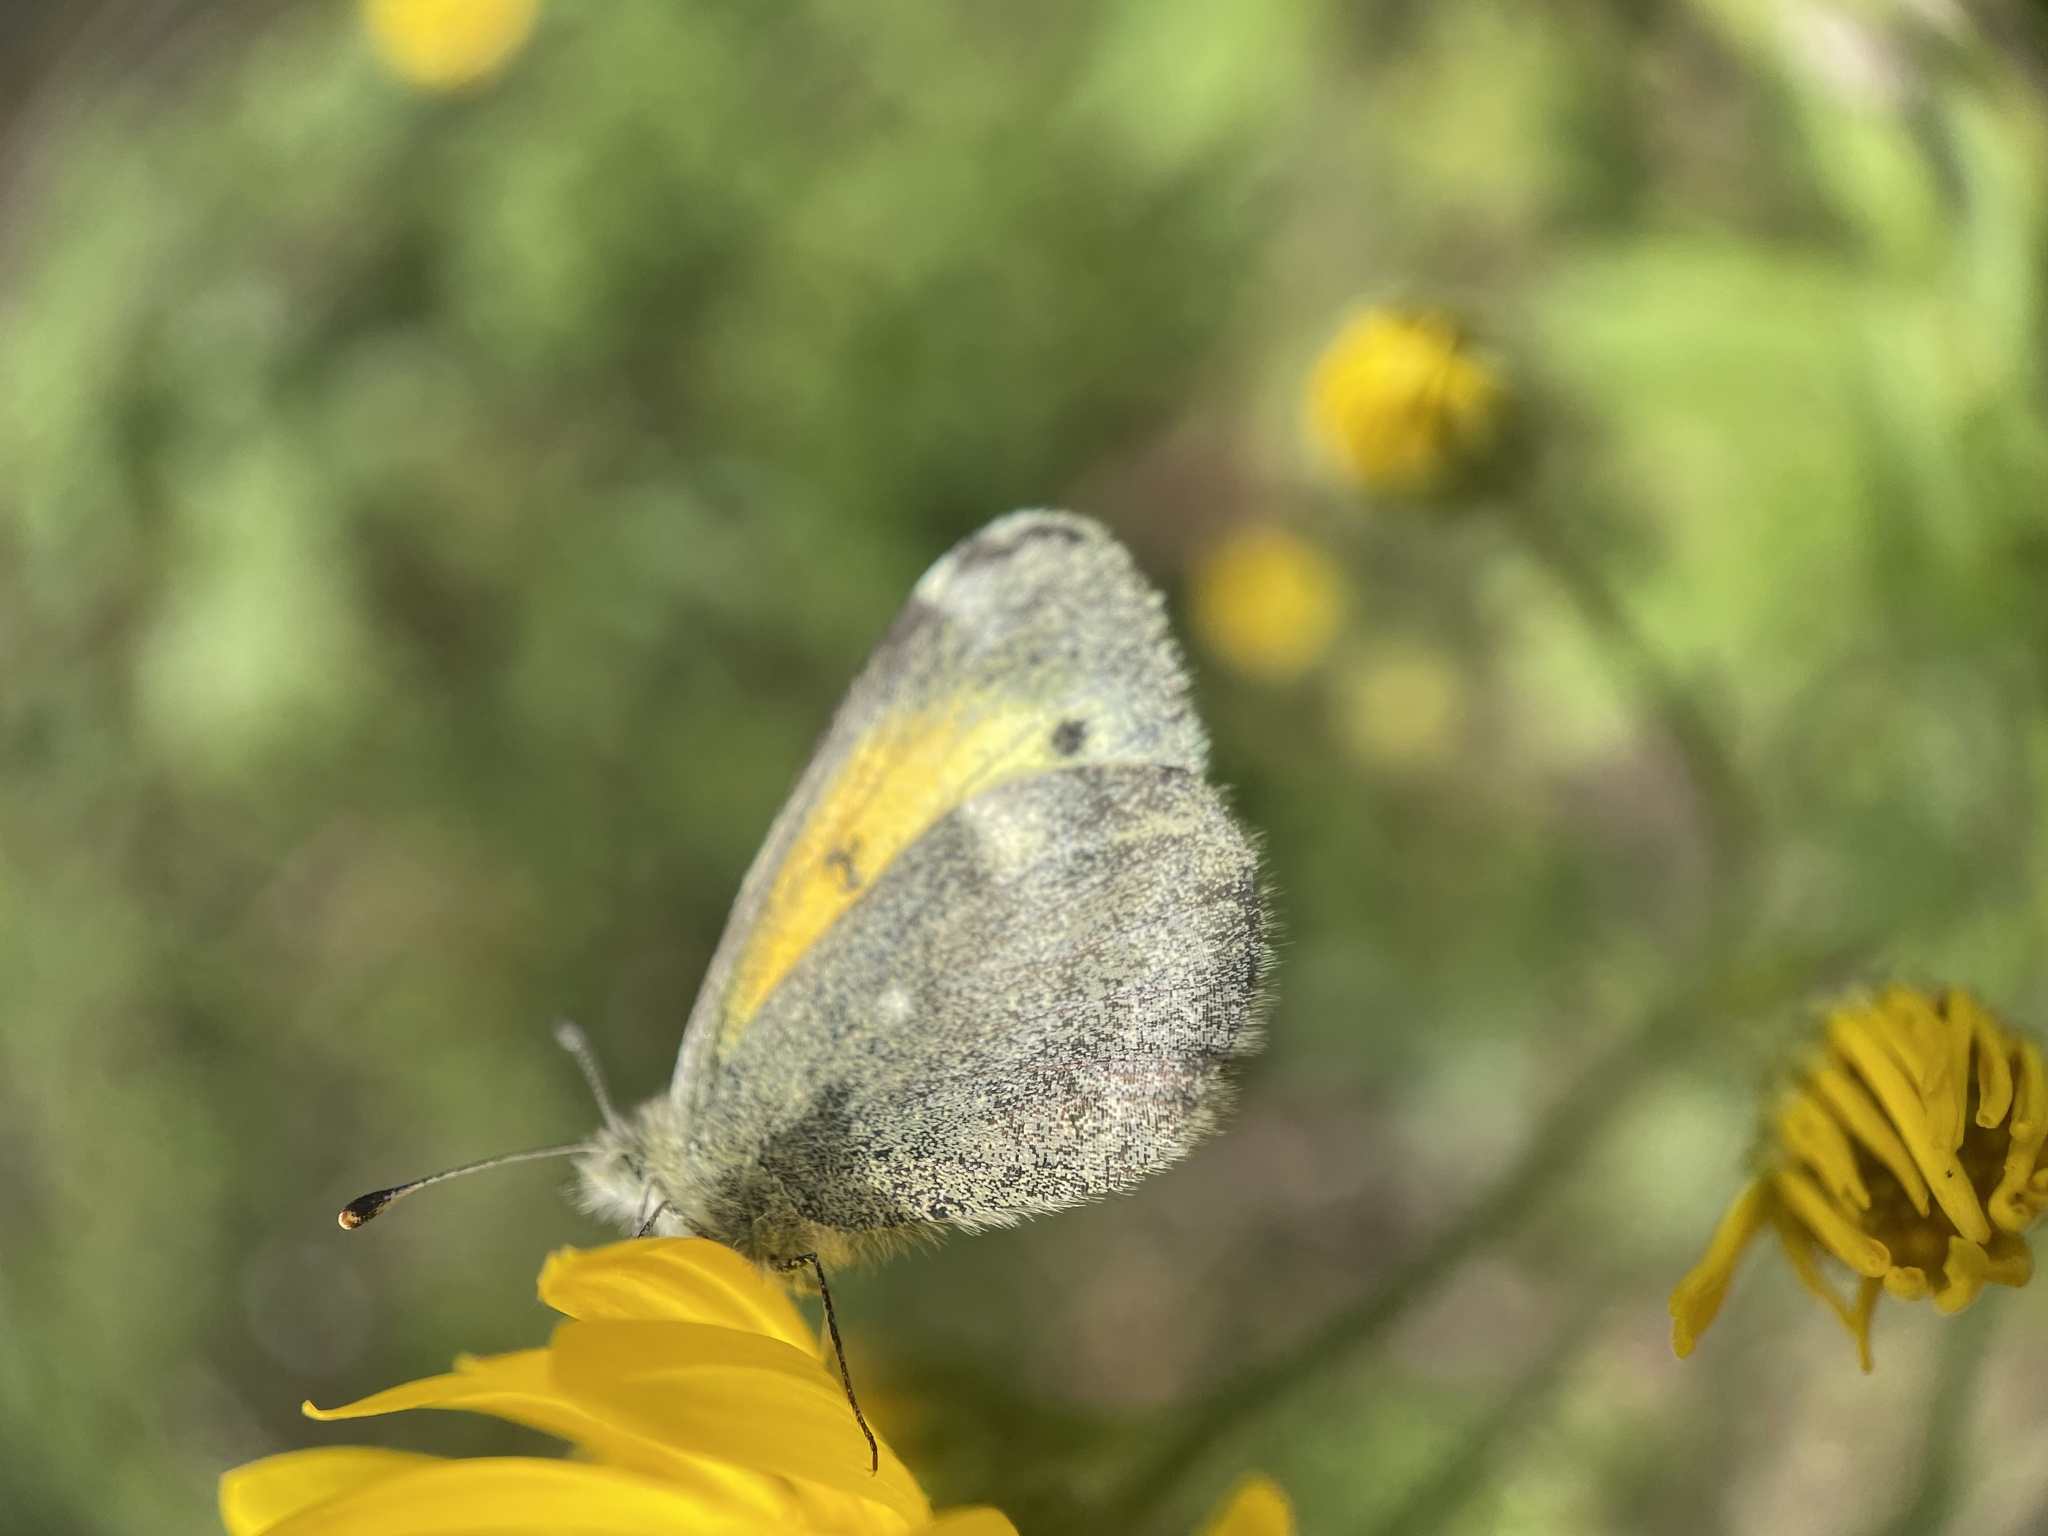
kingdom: Animalia
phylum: Arthropoda
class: Insecta
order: Lepidoptera
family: Pieridae
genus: Nathalis
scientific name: Nathalis iole
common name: Dainty sulphur
